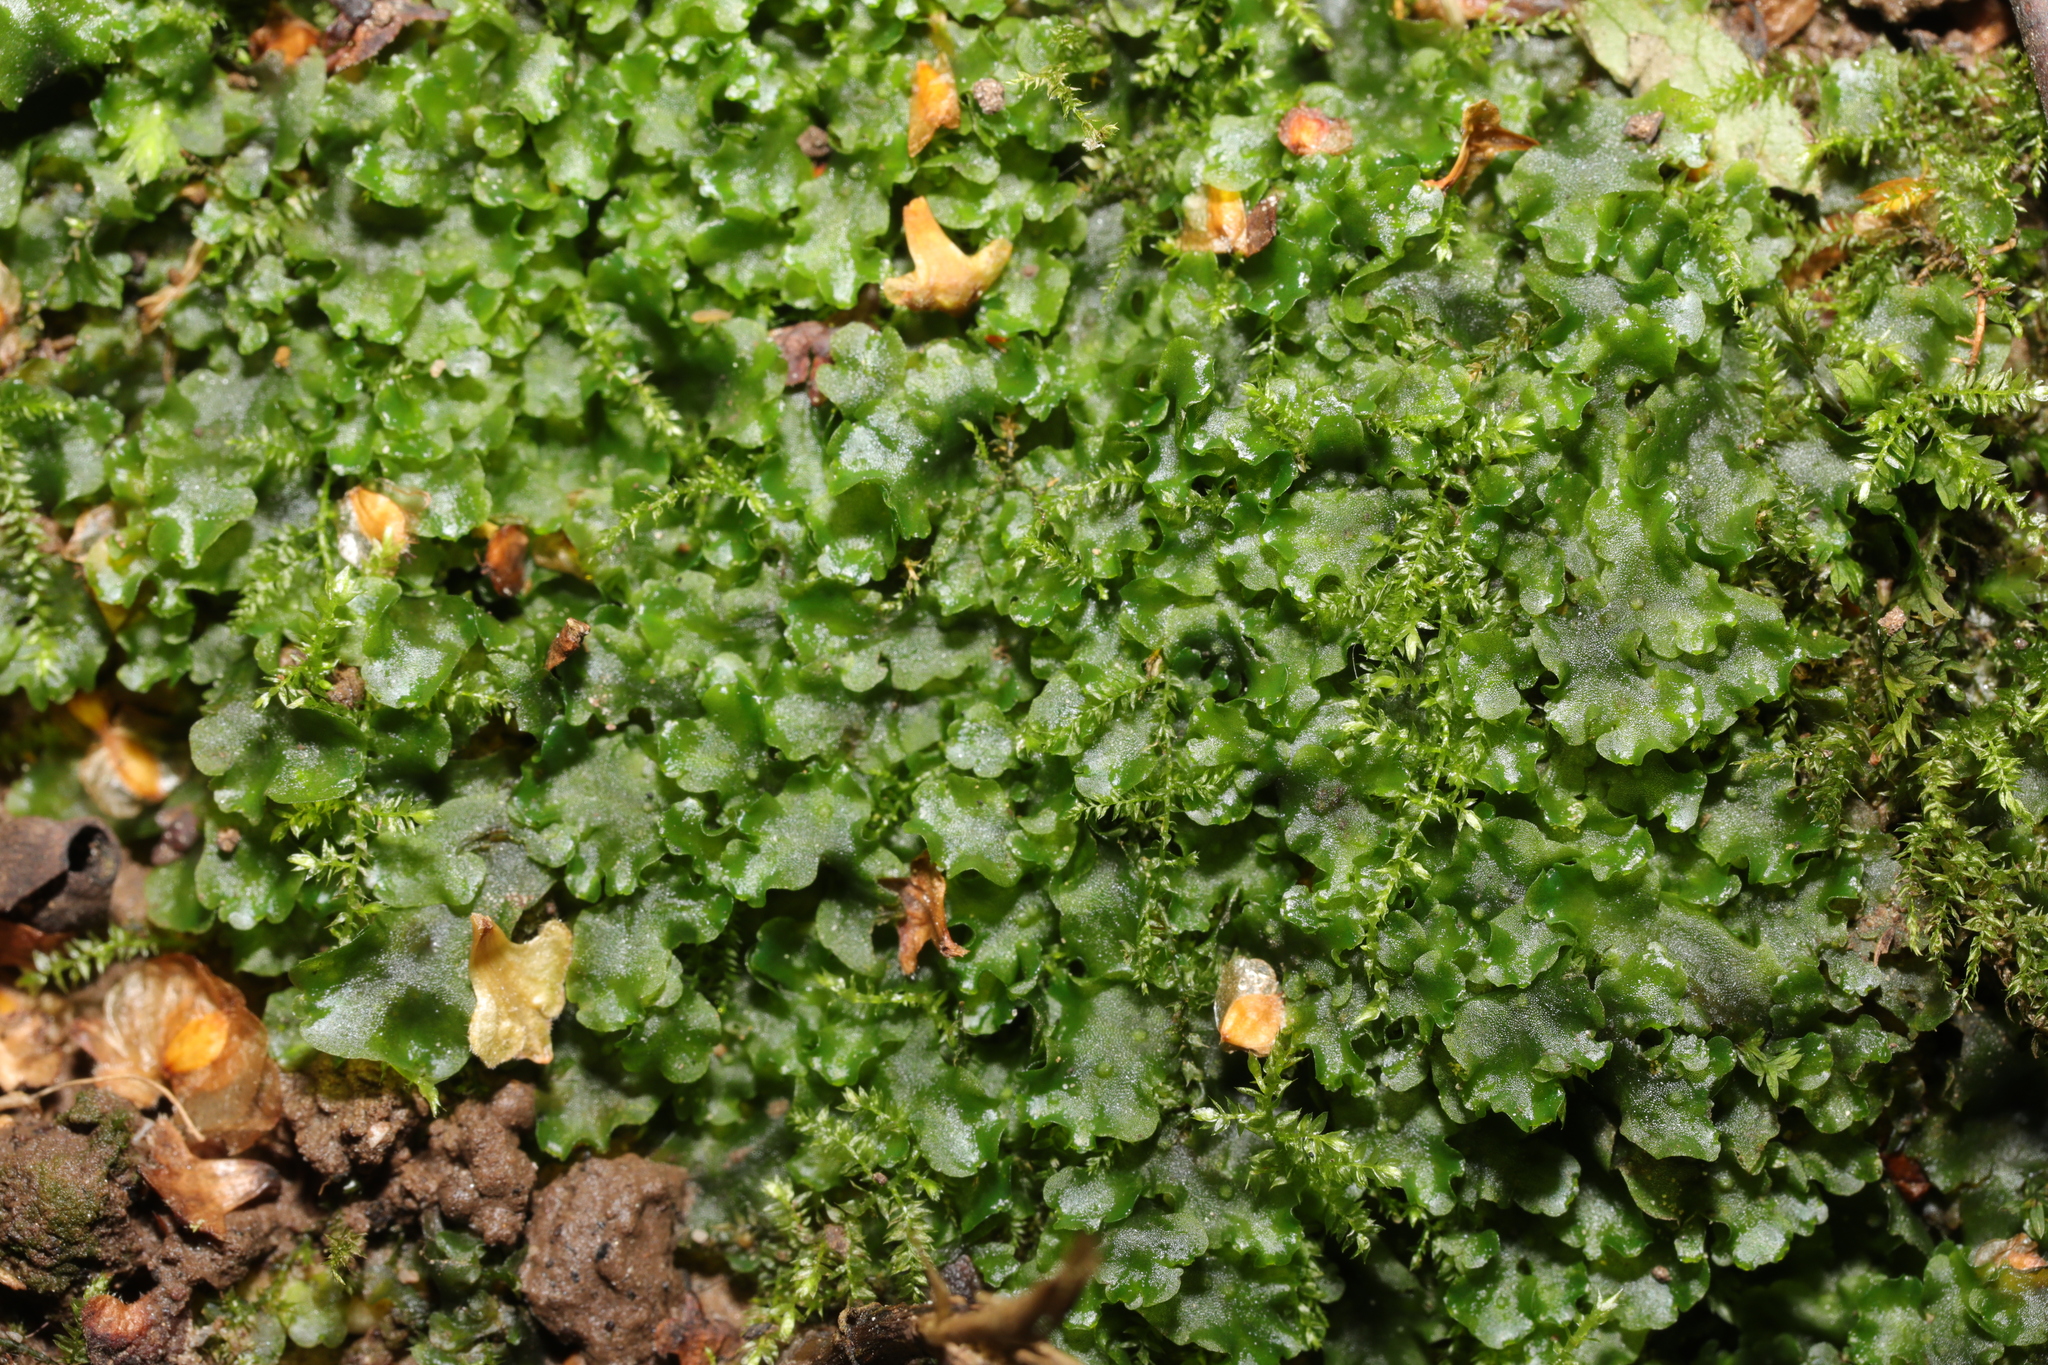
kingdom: Plantae
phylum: Marchantiophyta
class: Jungermanniopsida
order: Pelliales
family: Pelliaceae
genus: Pellia
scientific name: Pellia epiphylla
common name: Common pellia
